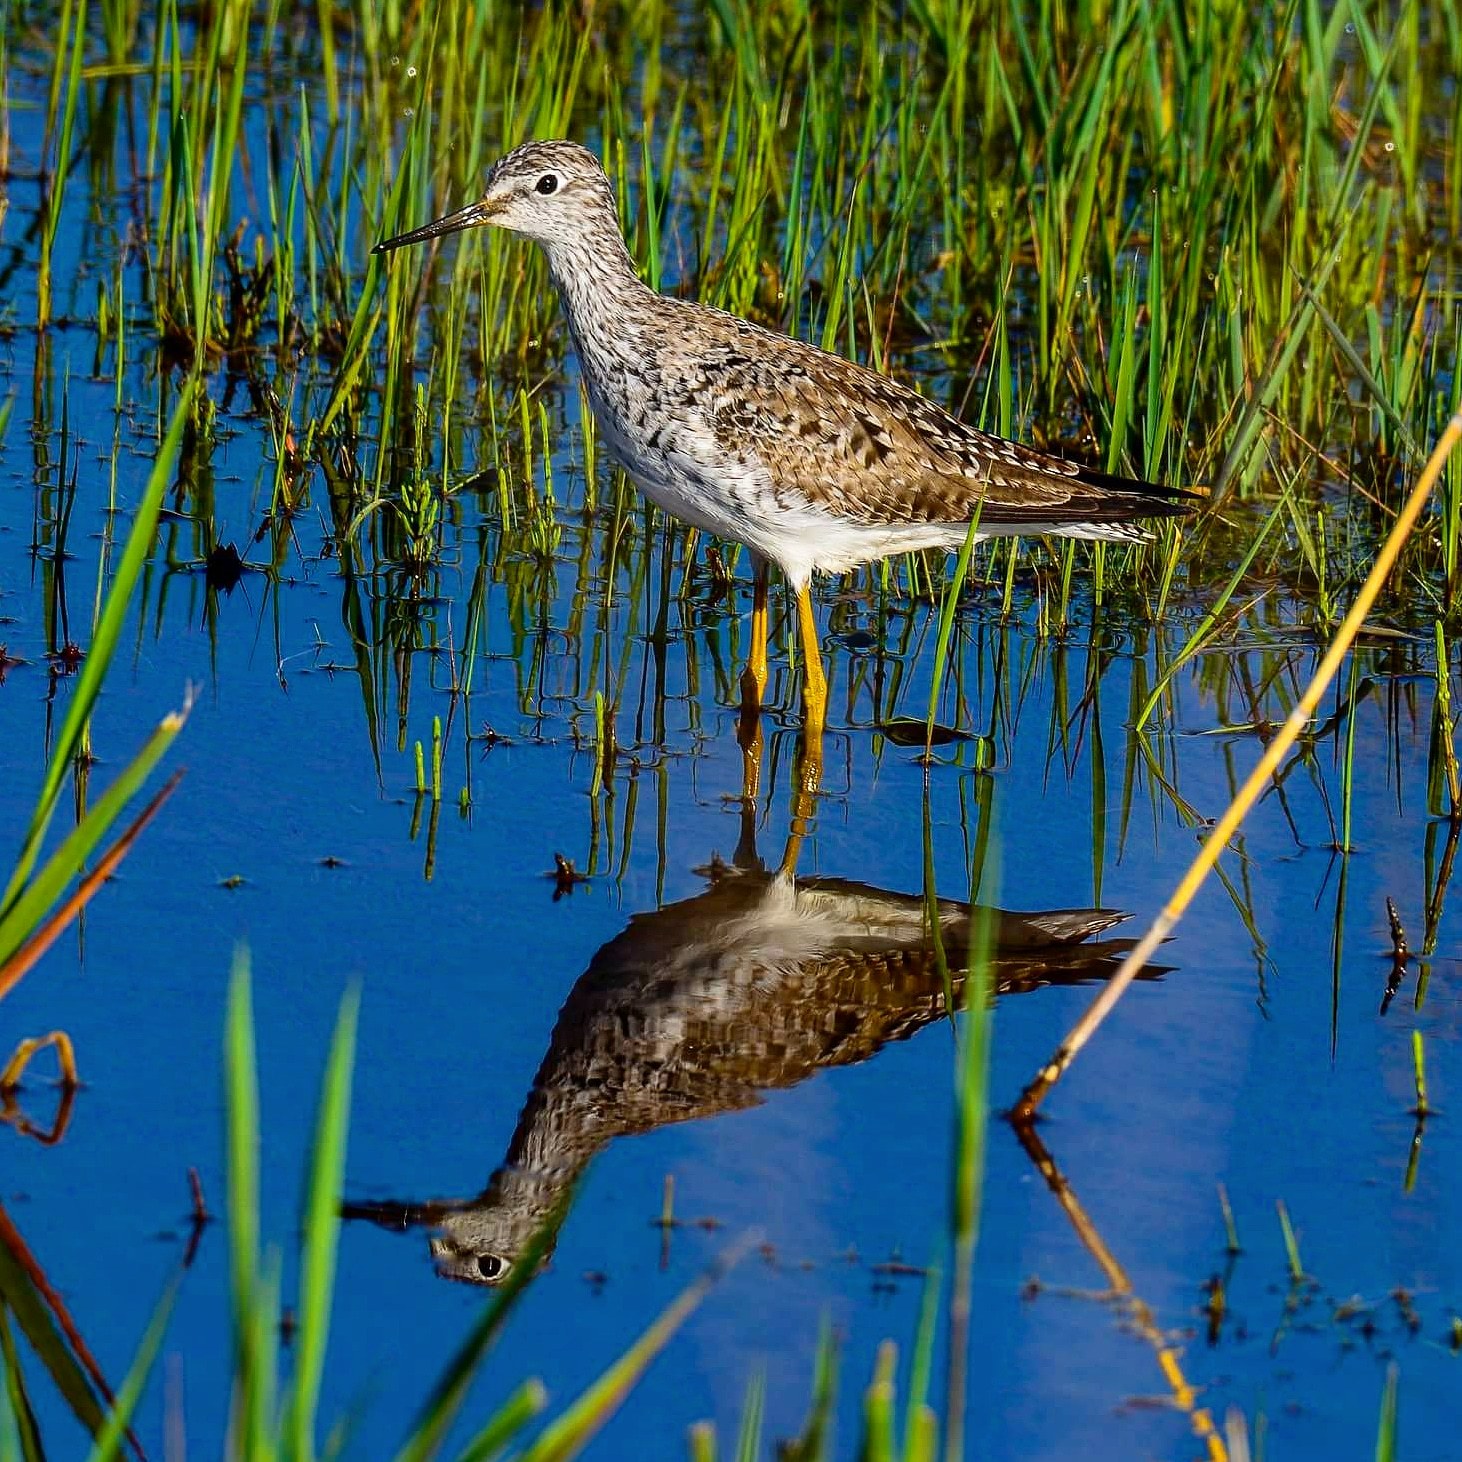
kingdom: Animalia
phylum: Chordata
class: Aves
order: Charadriiformes
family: Scolopacidae
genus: Tringa
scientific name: Tringa flavipes
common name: Lesser yellowlegs
